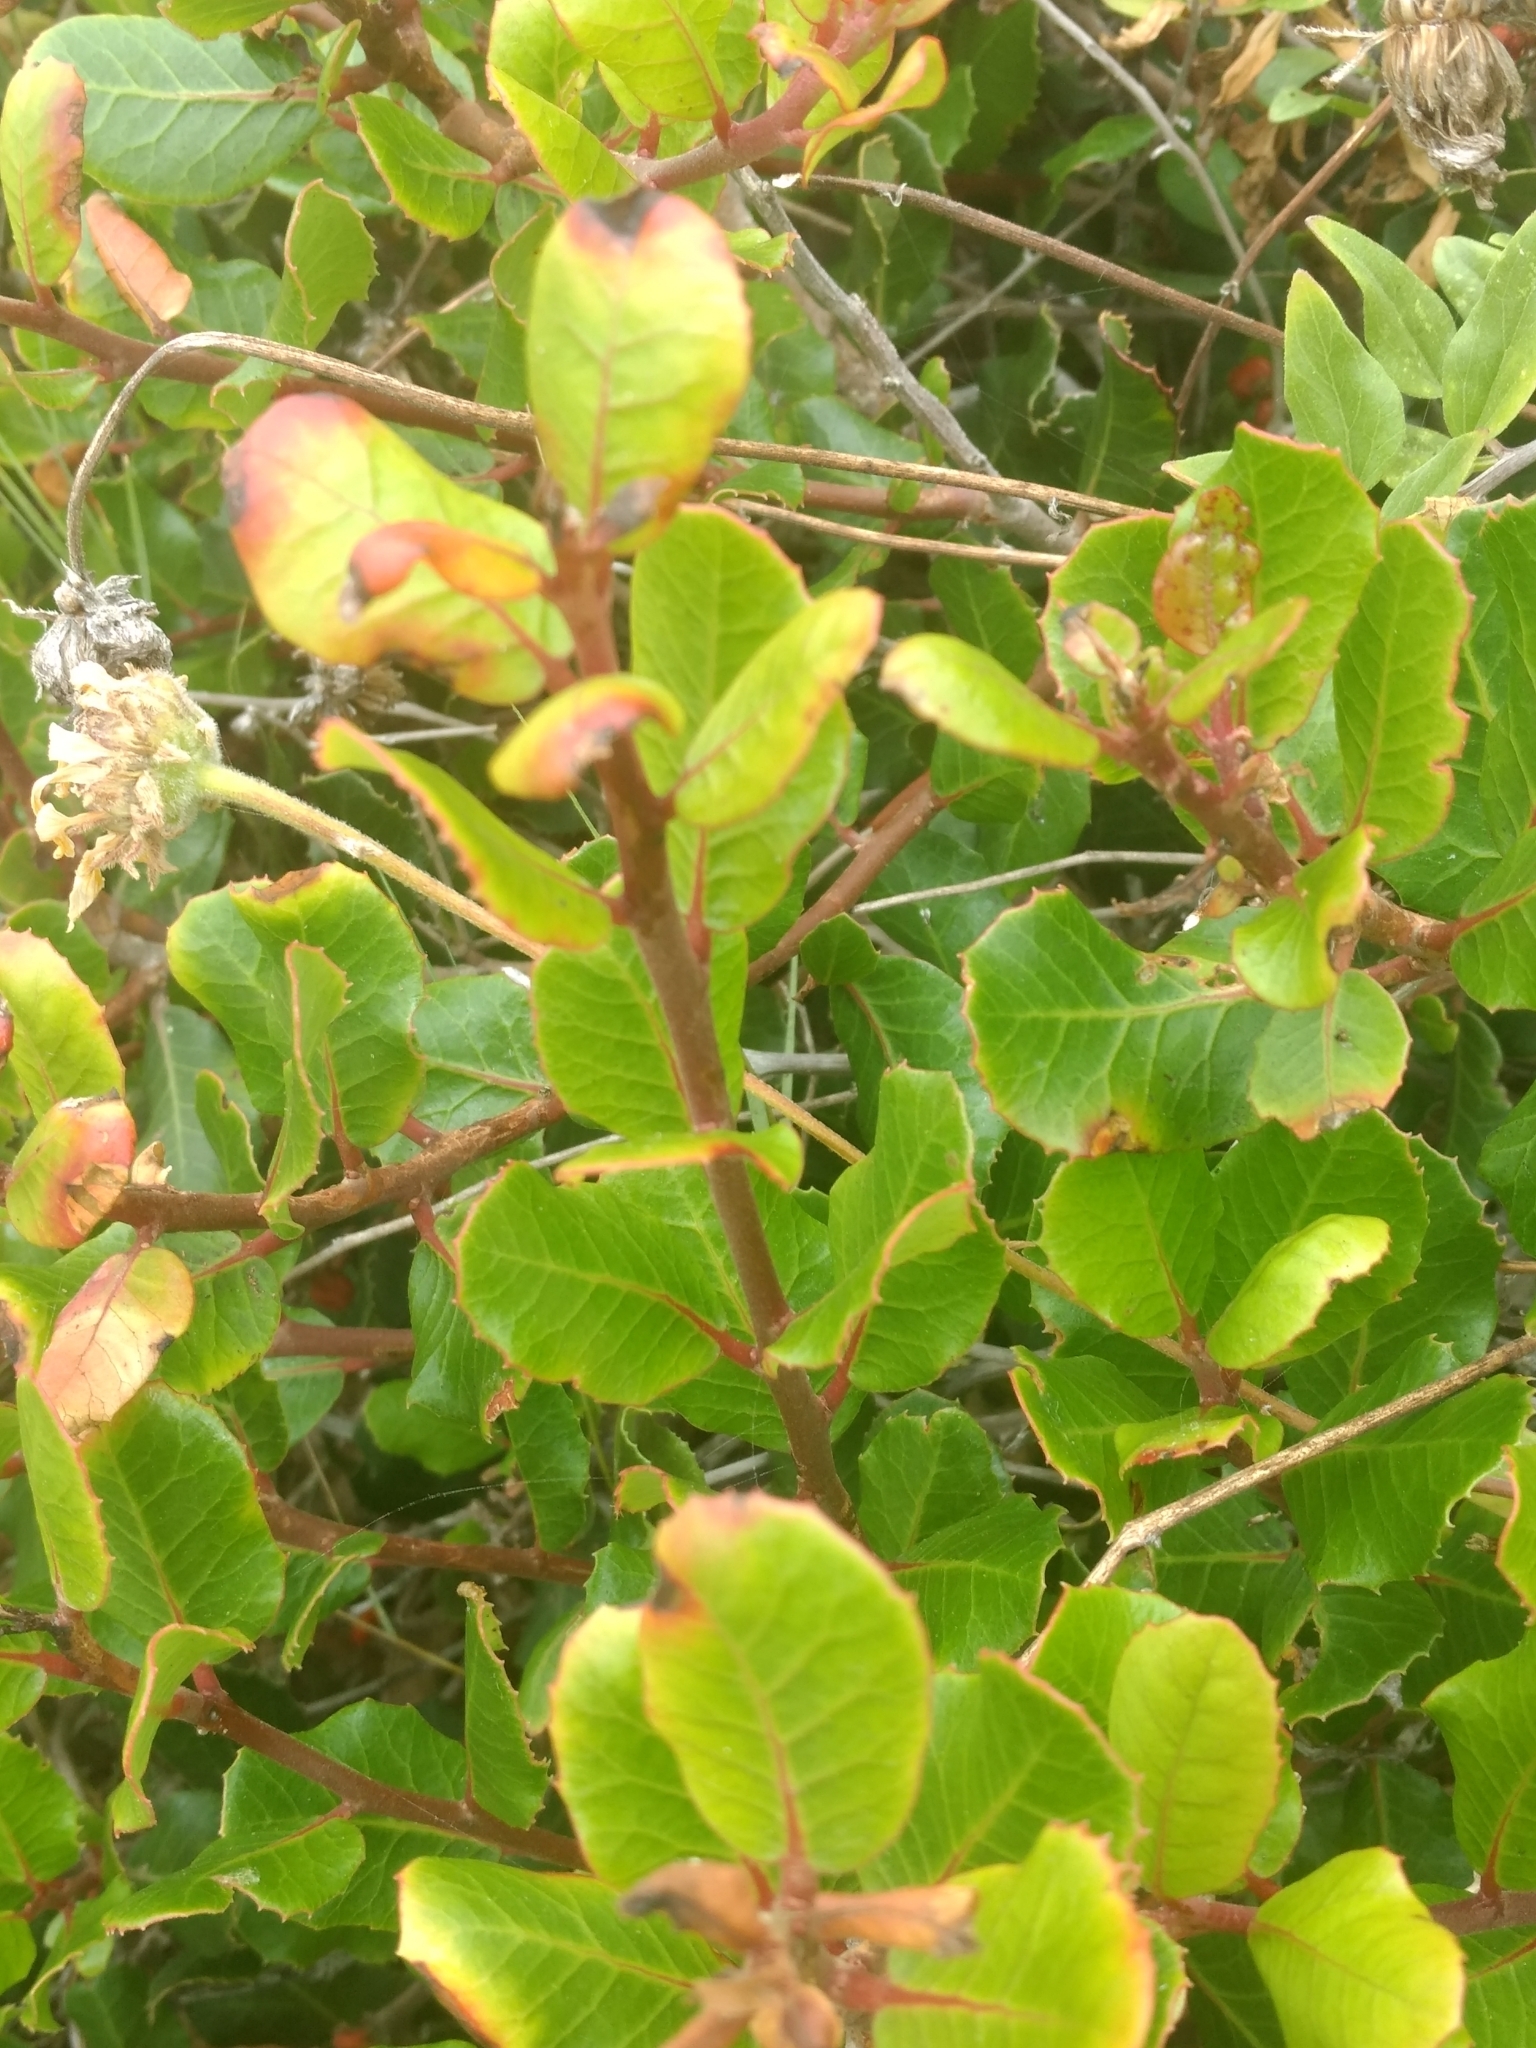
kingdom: Plantae
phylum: Tracheophyta
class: Magnoliopsida
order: Sapindales
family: Anacardiaceae
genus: Rhus
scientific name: Rhus integrifolia
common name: Lemonade sumac
